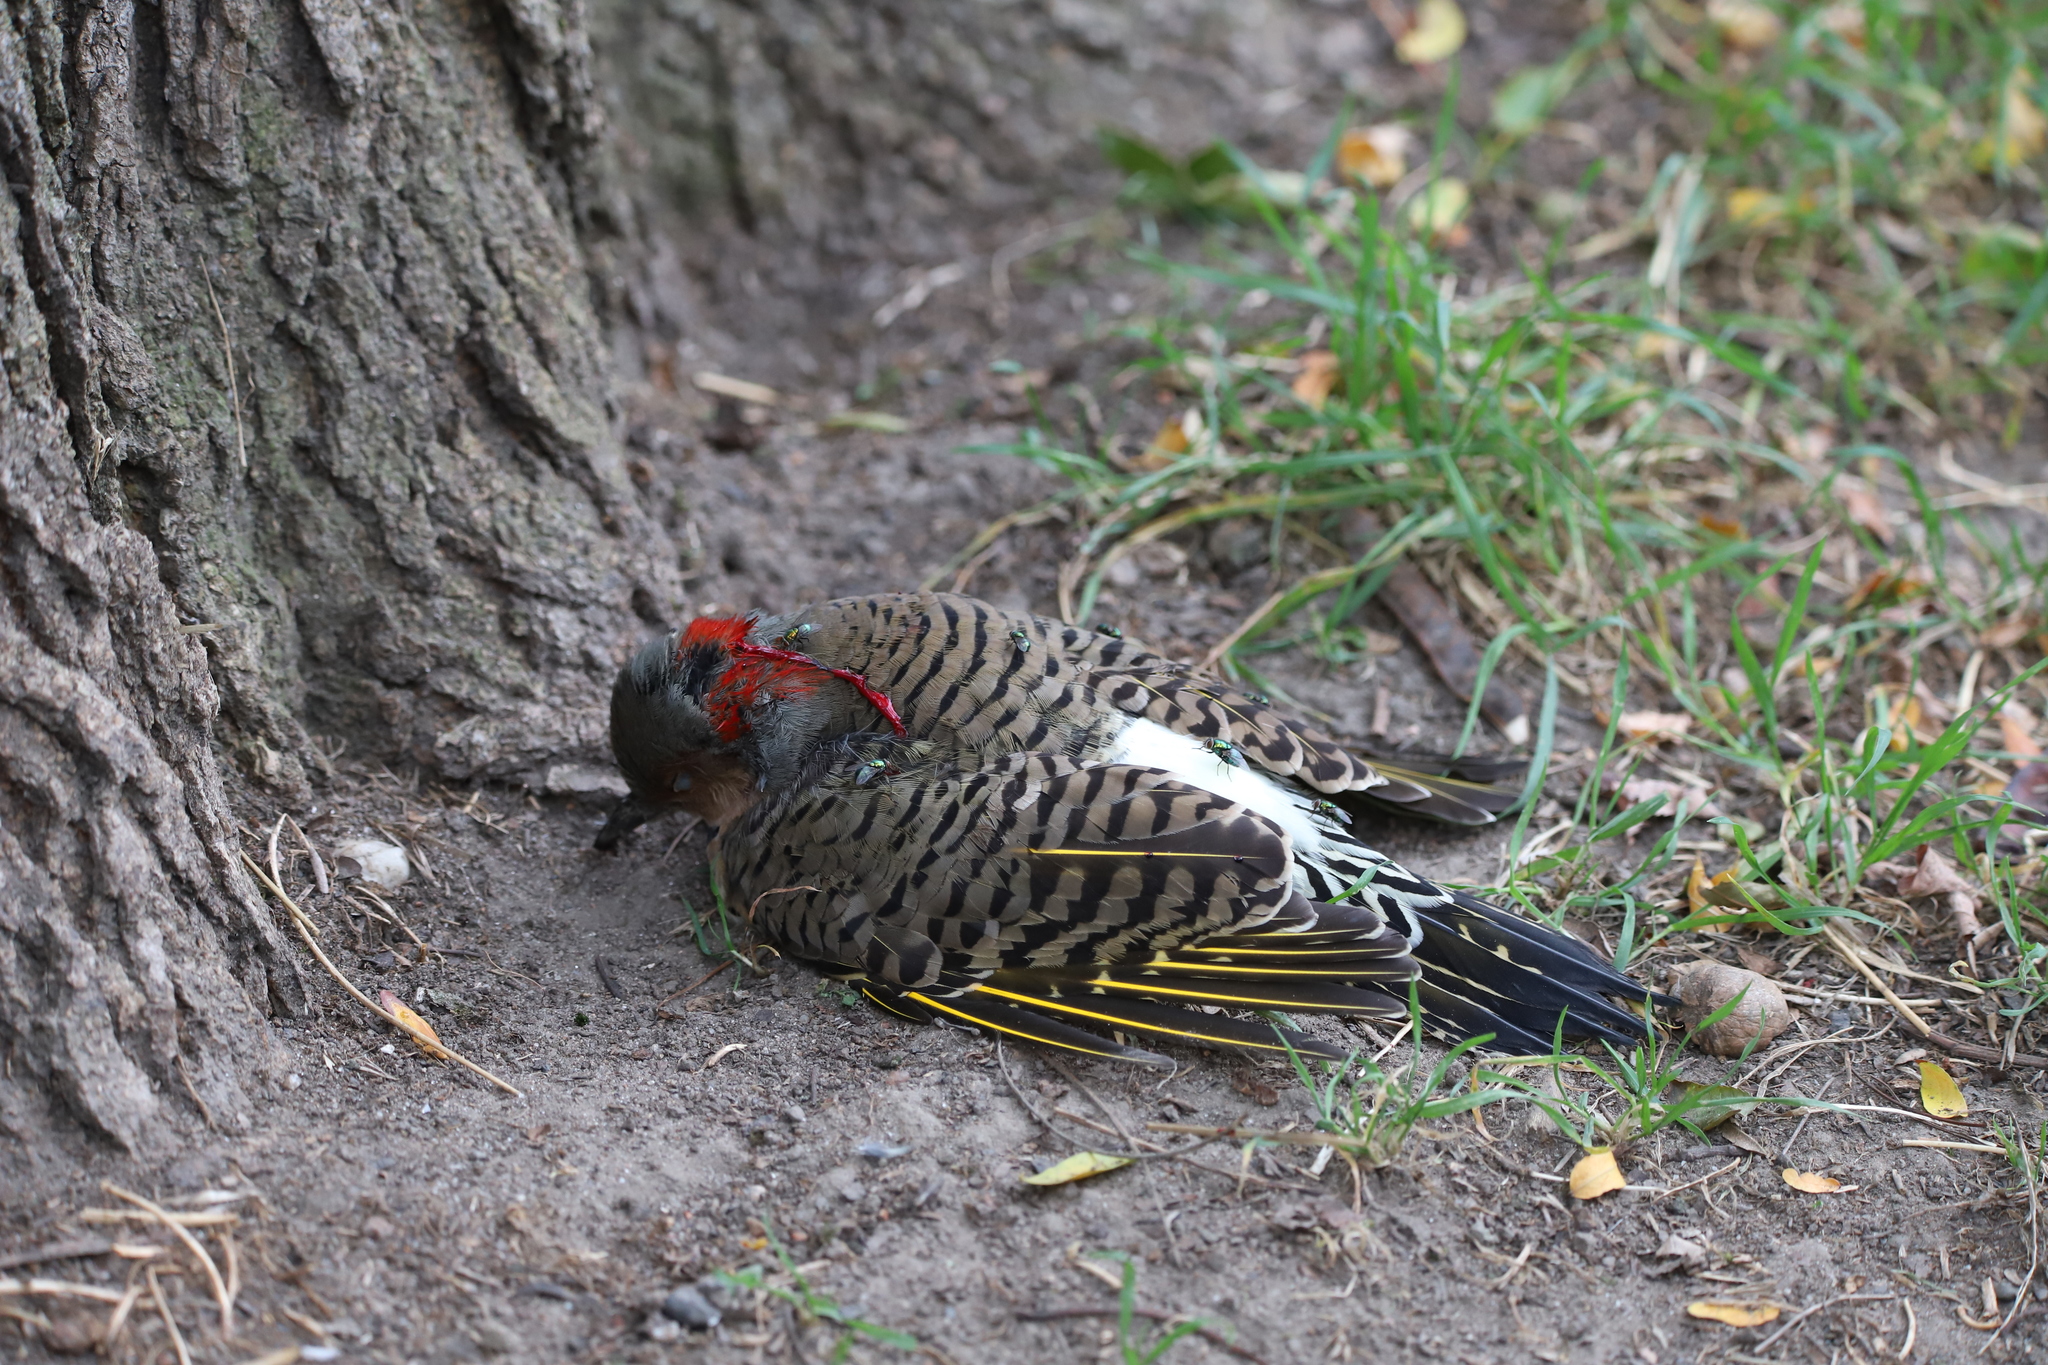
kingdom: Animalia
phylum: Chordata
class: Aves
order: Piciformes
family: Picidae
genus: Colaptes
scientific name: Colaptes auratus
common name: Northern flicker
